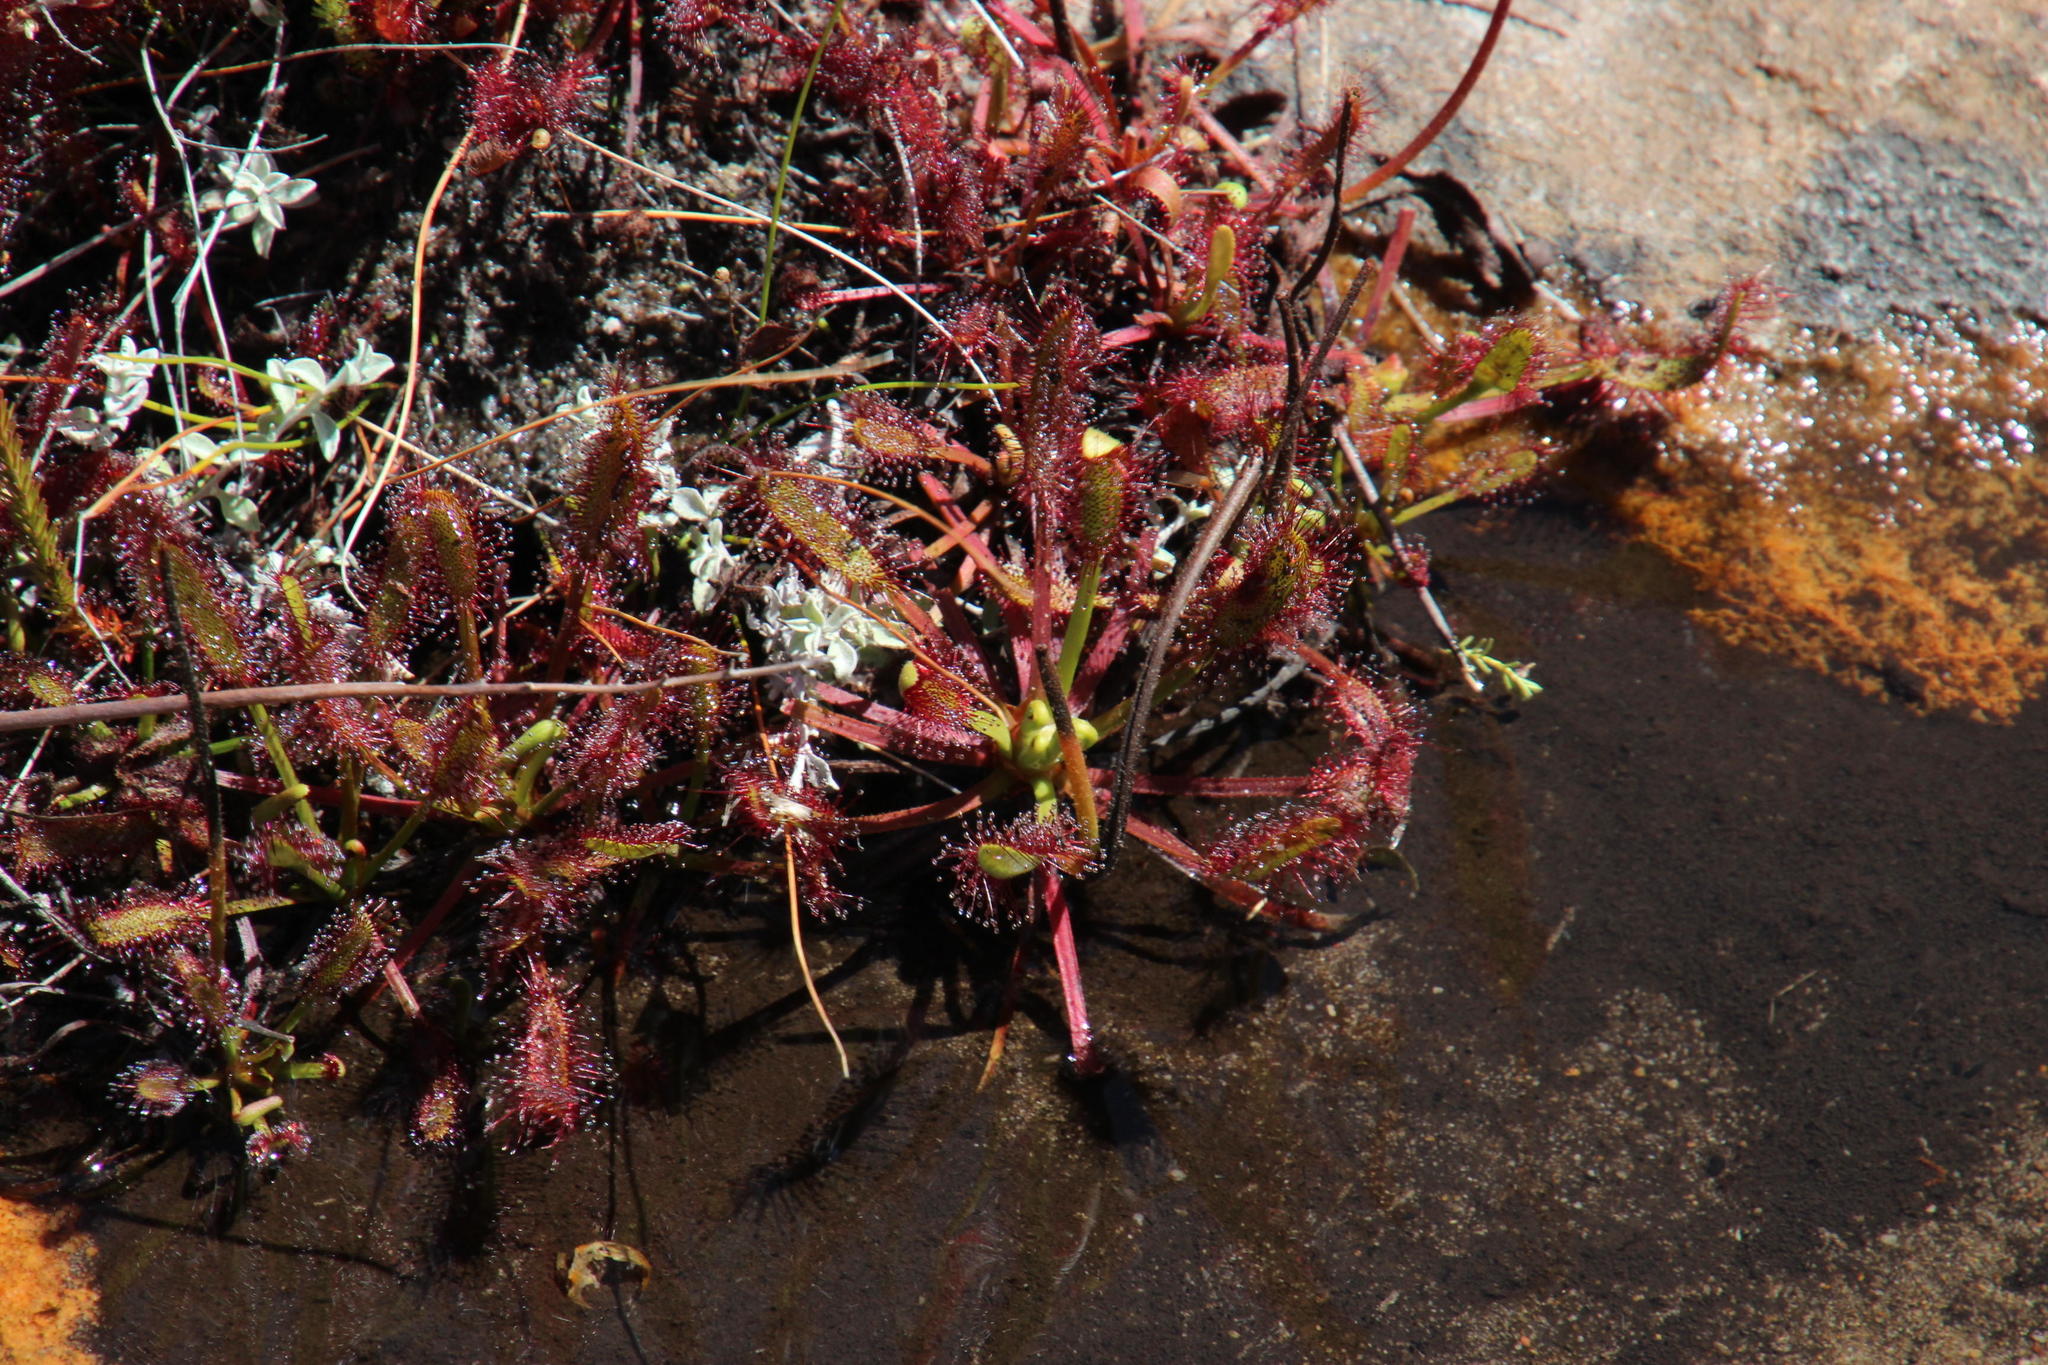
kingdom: Plantae
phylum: Tracheophyta
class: Magnoliopsida
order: Caryophyllales
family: Droseraceae
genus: Drosera
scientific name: Drosera capensis
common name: Cape sundew
